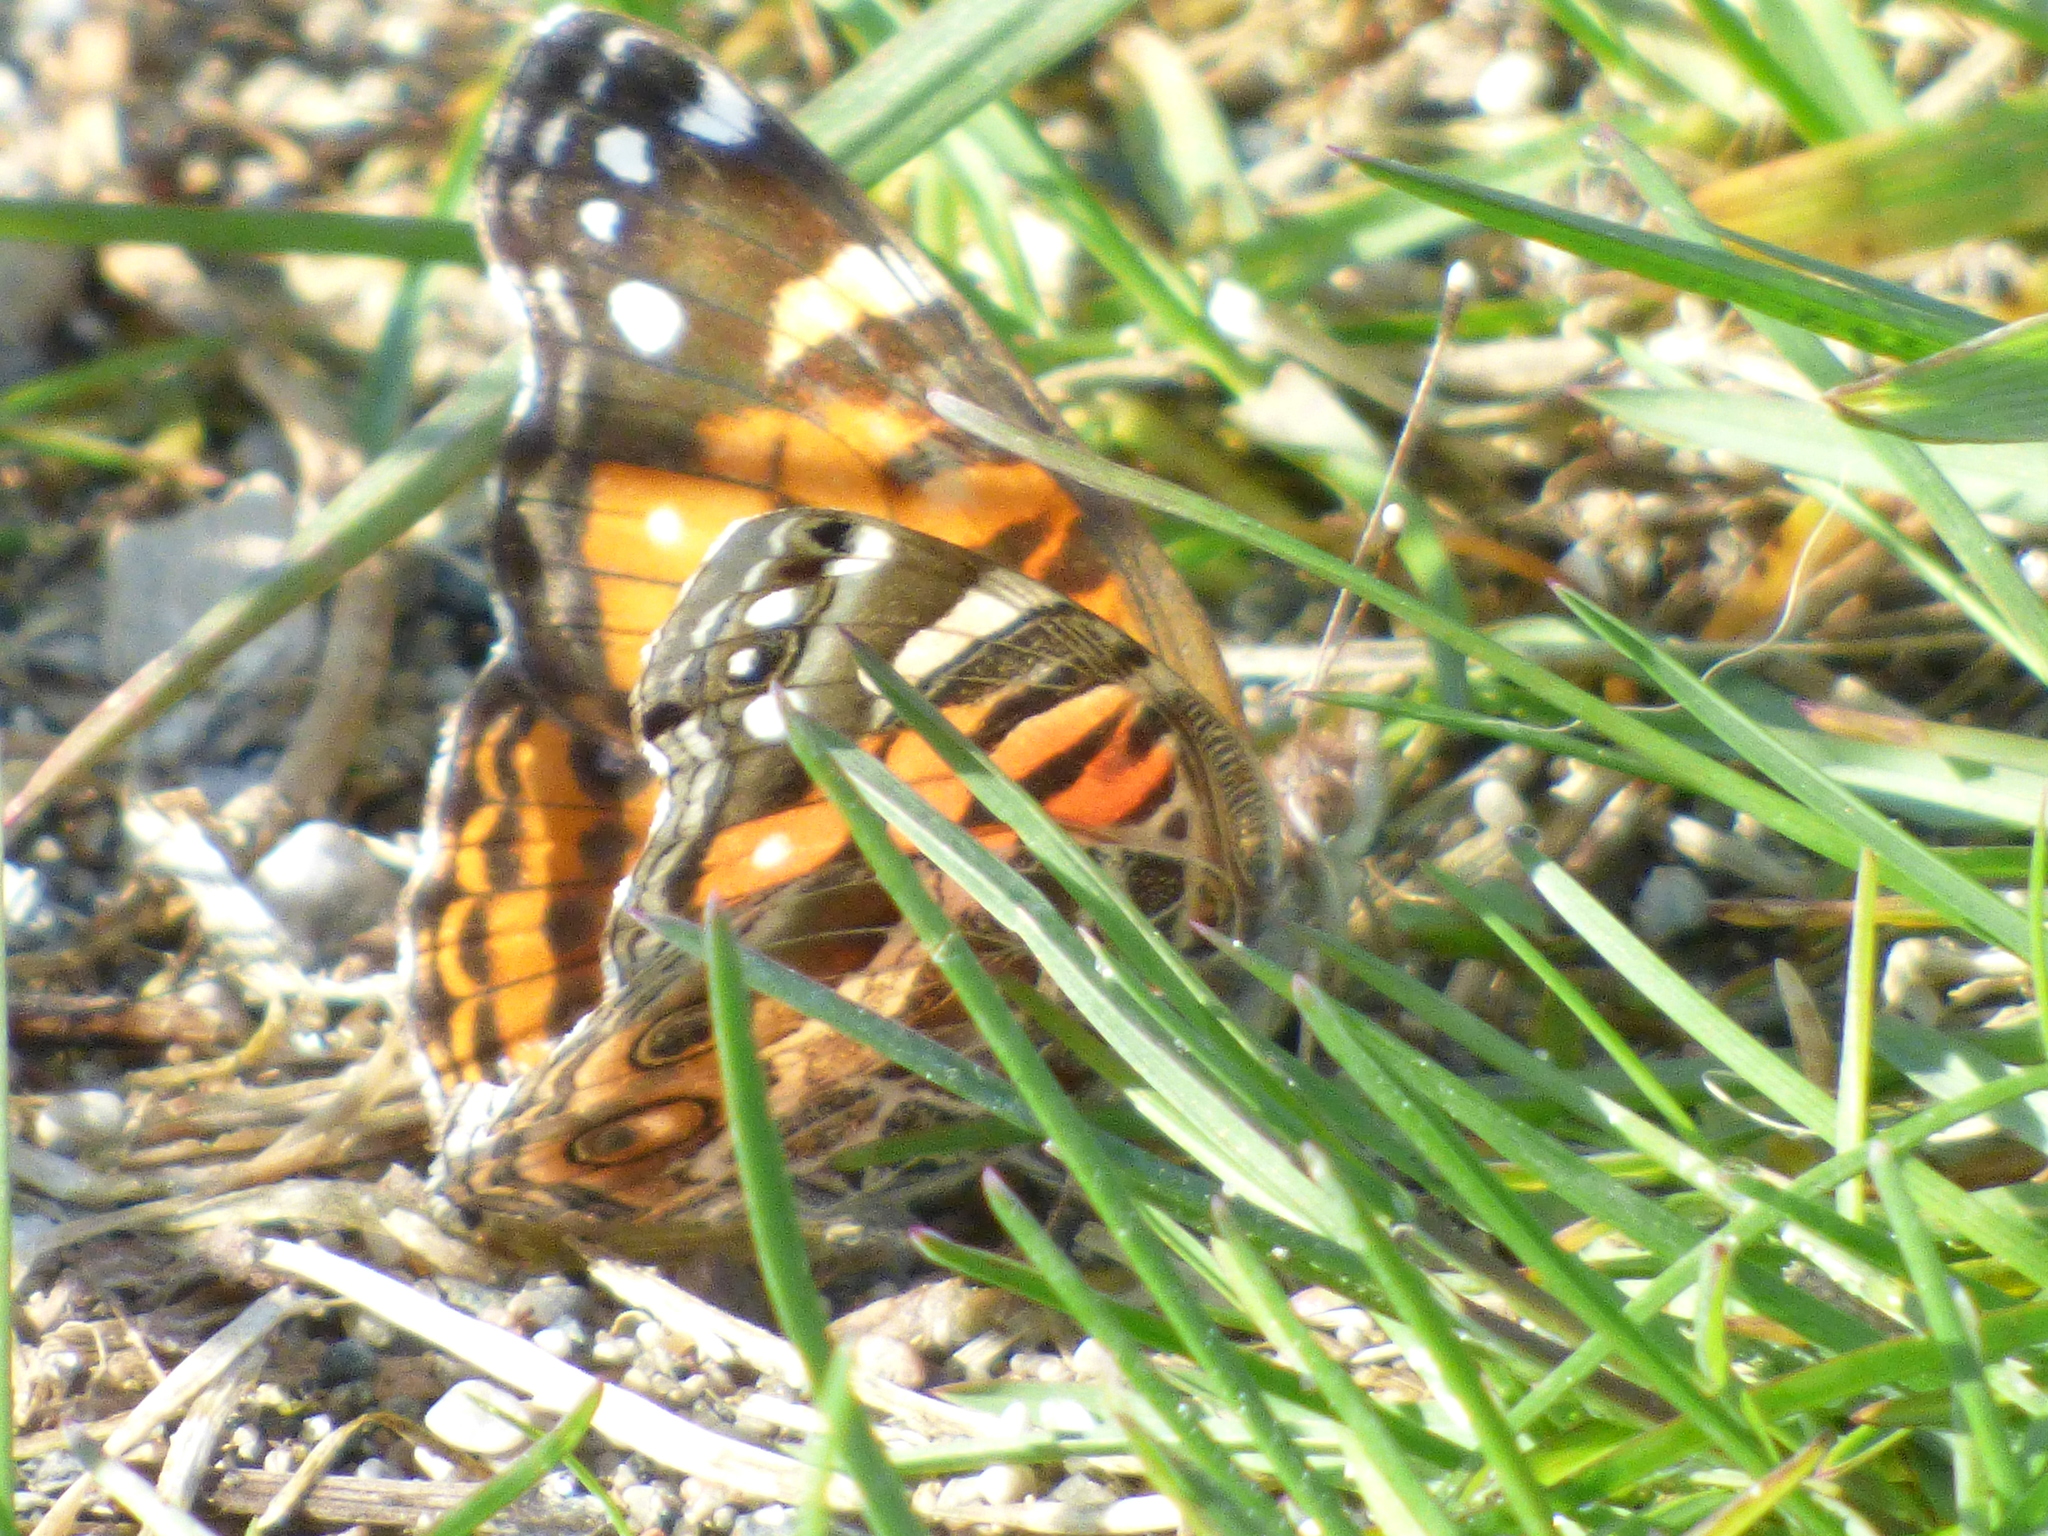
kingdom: Animalia
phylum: Arthropoda
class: Insecta
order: Lepidoptera
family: Nymphalidae
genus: Vanessa
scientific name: Vanessa virginiensis
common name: American lady
